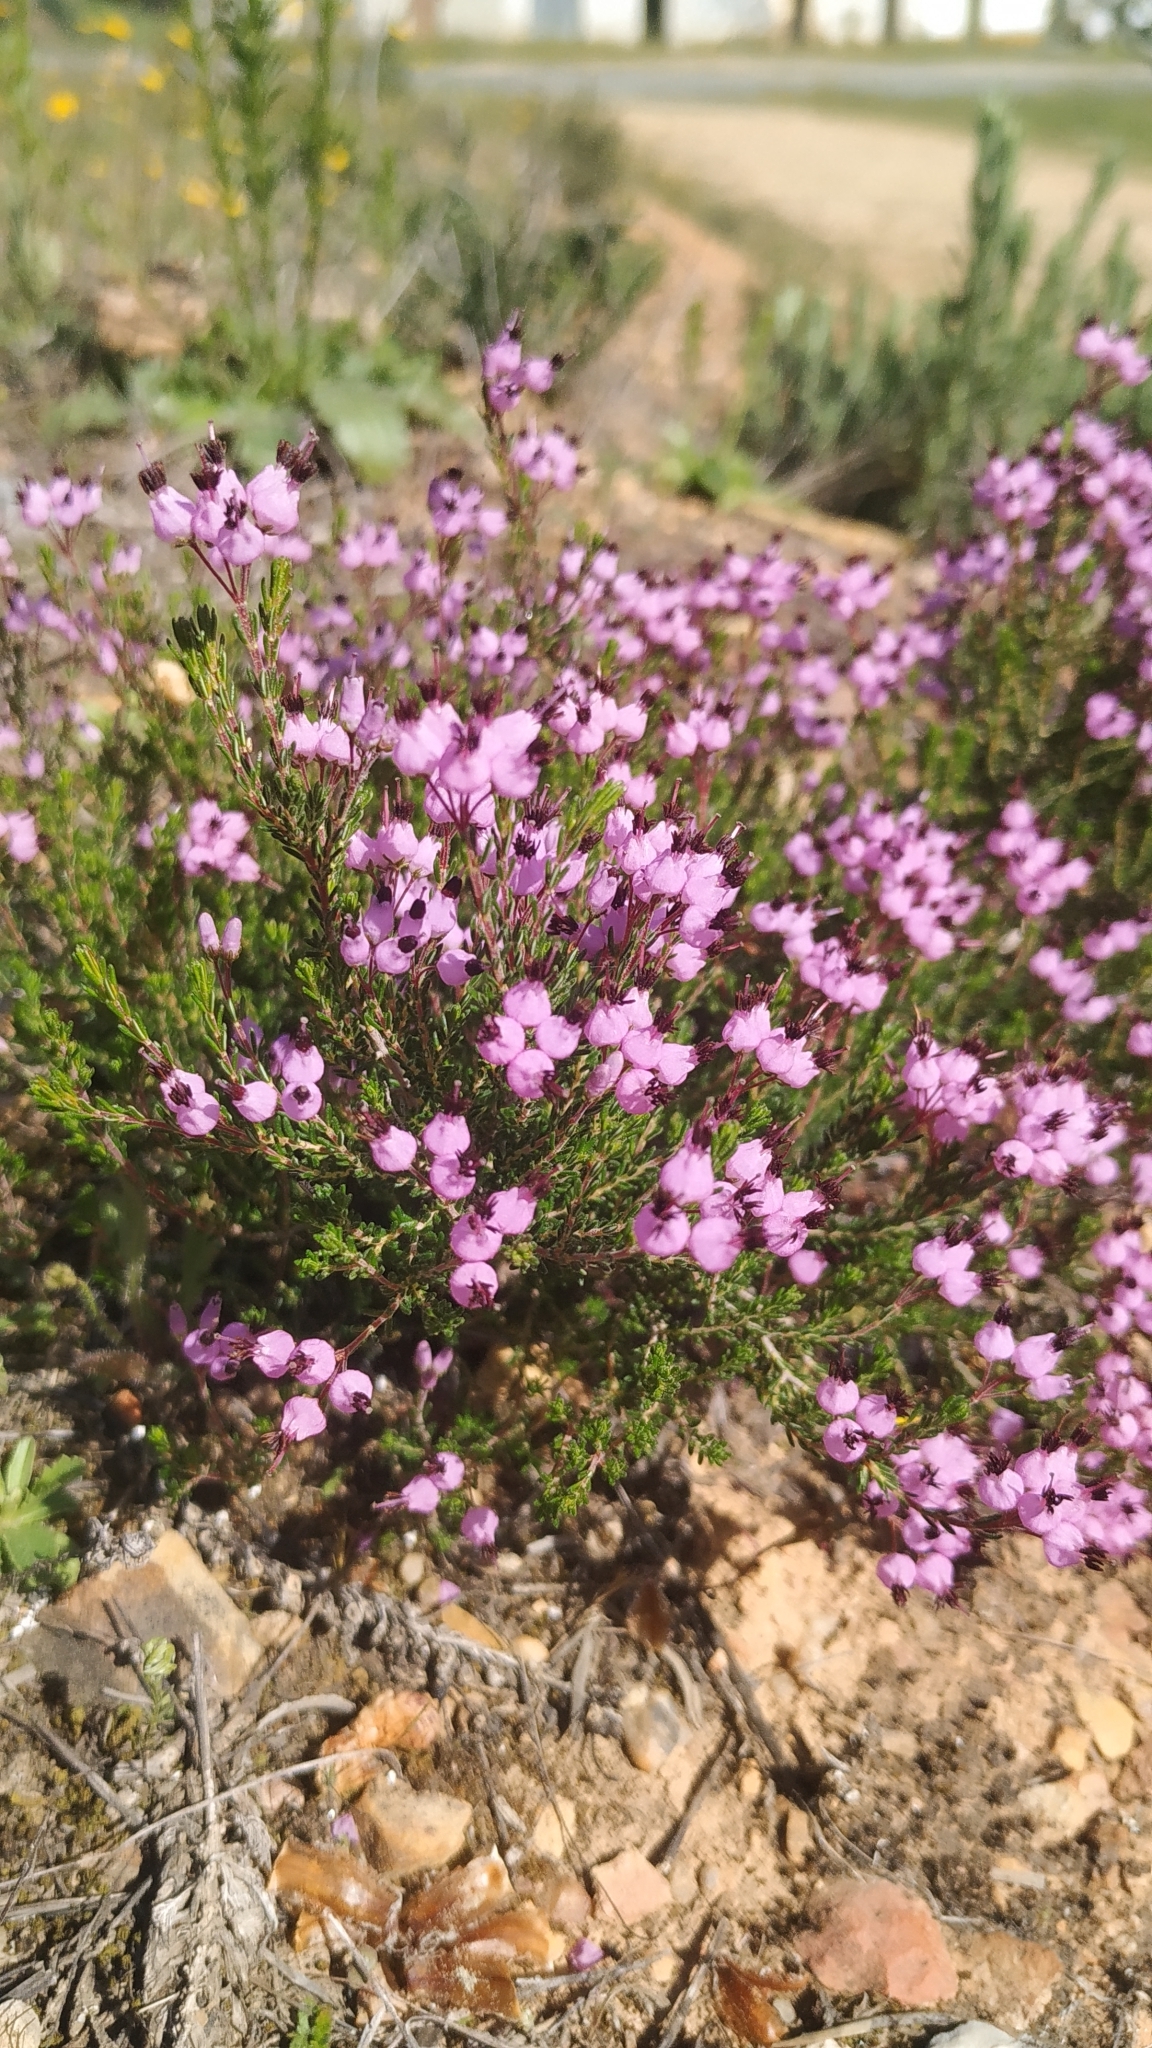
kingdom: Plantae
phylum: Tracheophyta
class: Magnoliopsida
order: Ericales
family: Ericaceae
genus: Erica
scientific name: Erica umbellata
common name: Dwarf spanish heath
